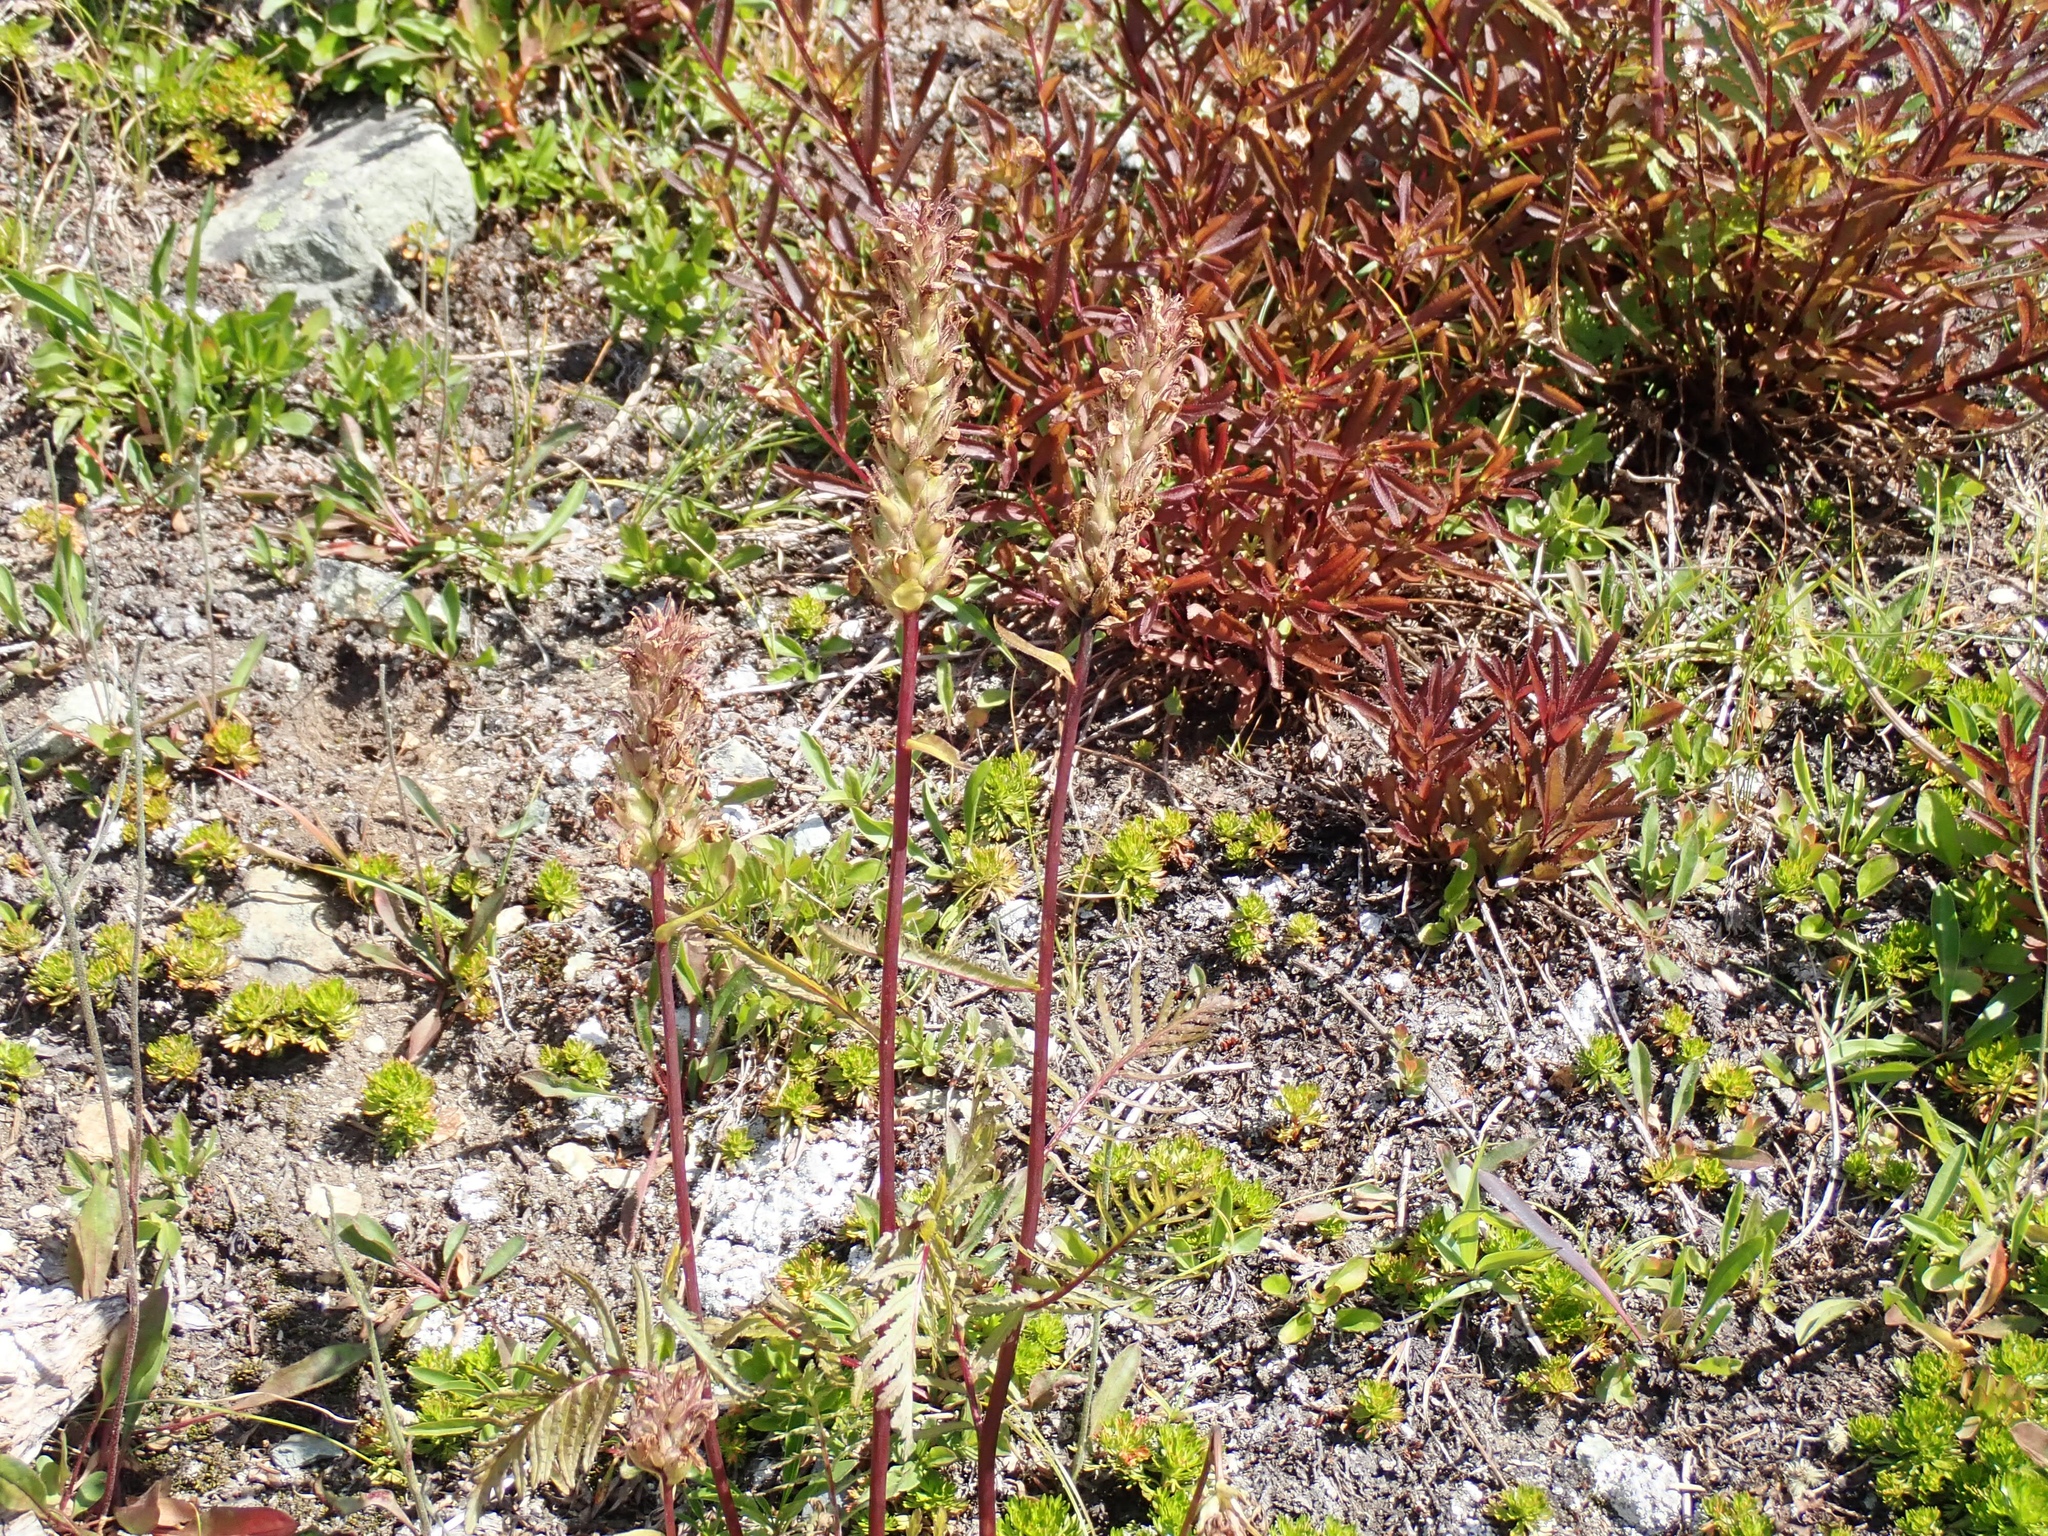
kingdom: Plantae
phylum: Tracheophyta
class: Magnoliopsida
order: Lamiales
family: Orobanchaceae
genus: Pedicularis
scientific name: Pedicularis bracteosa
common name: Bracted lousewort
